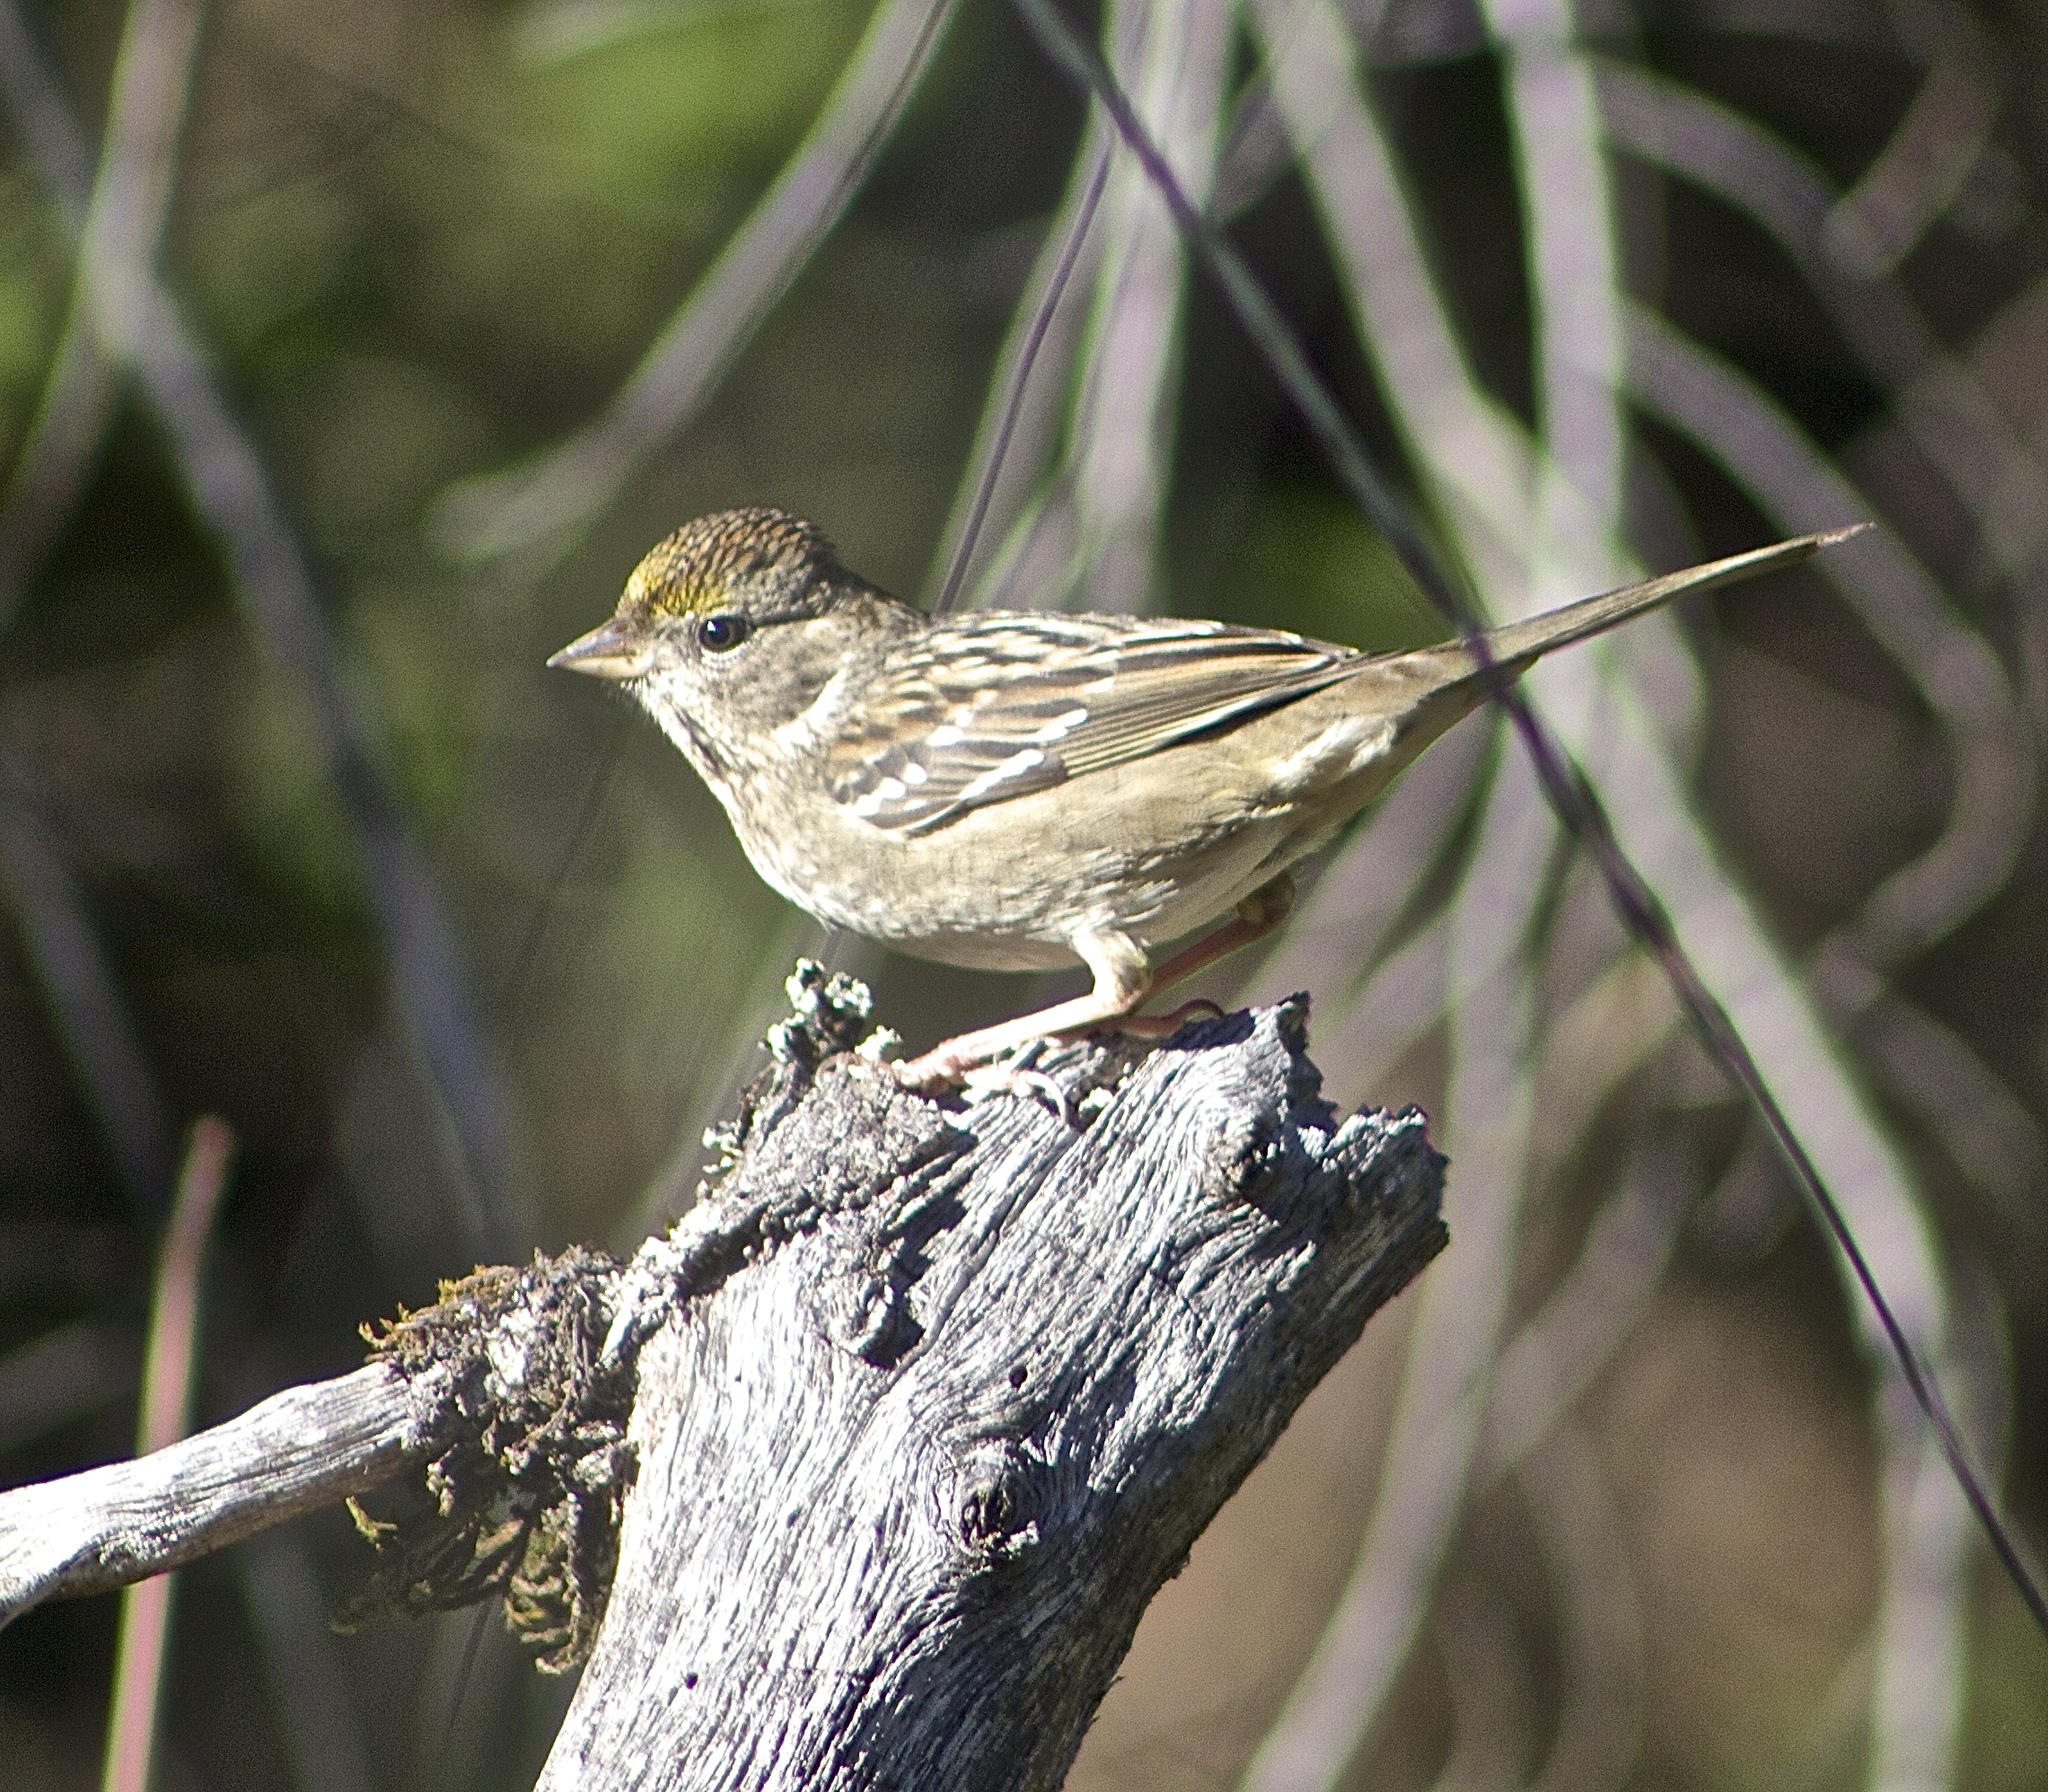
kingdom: Animalia
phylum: Chordata
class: Aves
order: Passeriformes
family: Passerellidae
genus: Zonotrichia
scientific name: Zonotrichia atricapilla
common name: Golden-crowned sparrow
